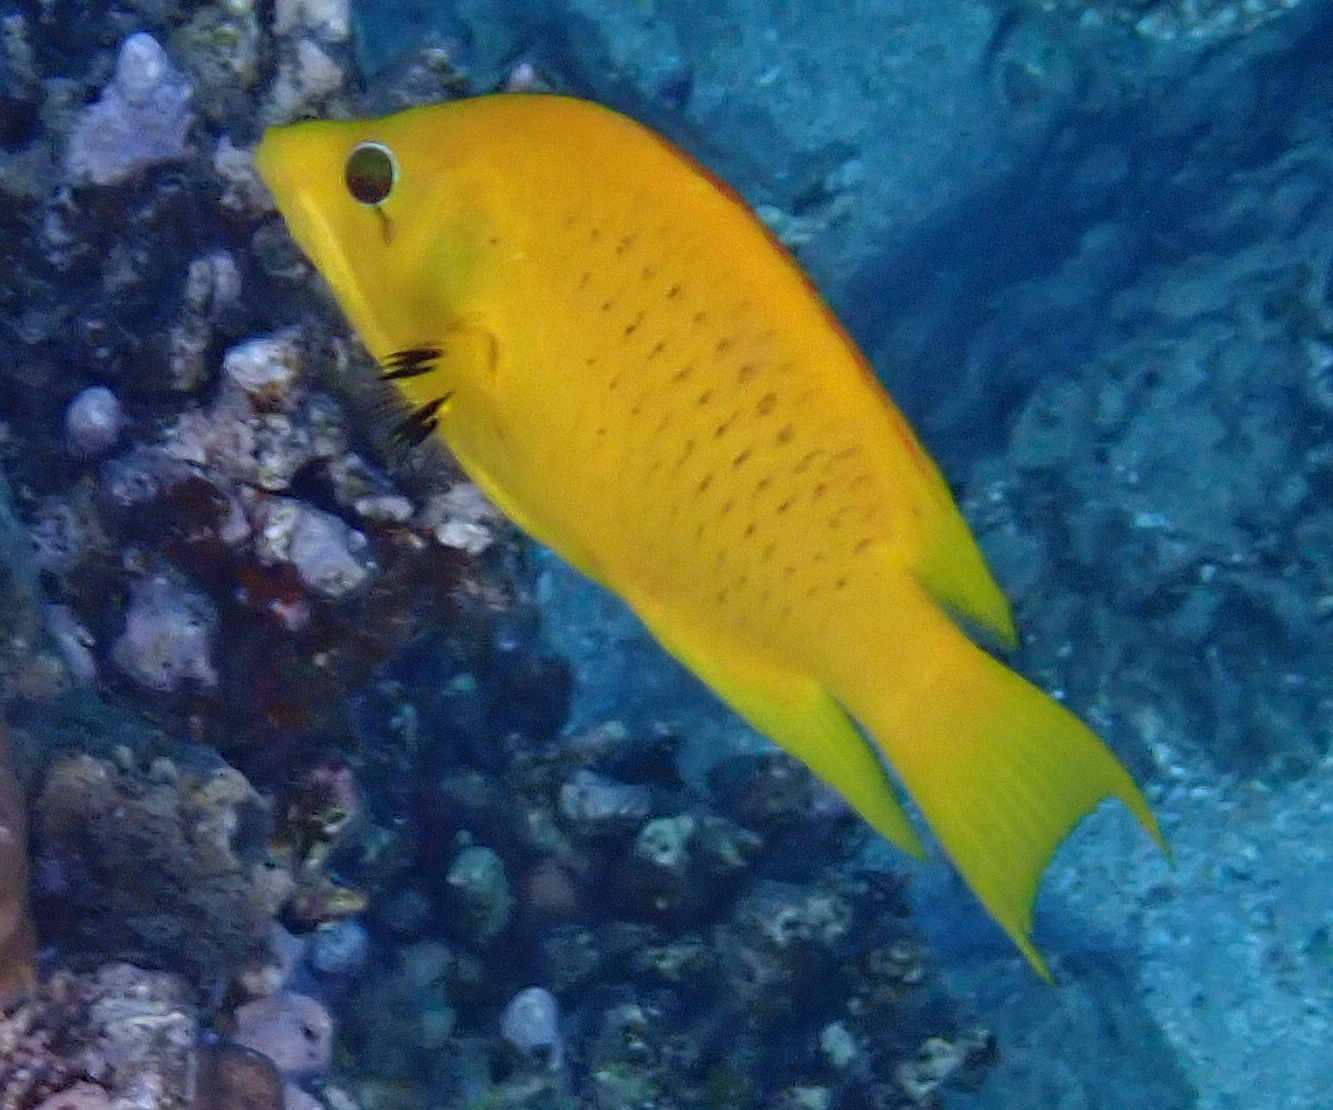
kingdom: Animalia
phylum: Chordata
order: Perciformes
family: Labridae
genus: Epibulus
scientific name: Epibulus insidiator
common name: Slingjaw wrasse
